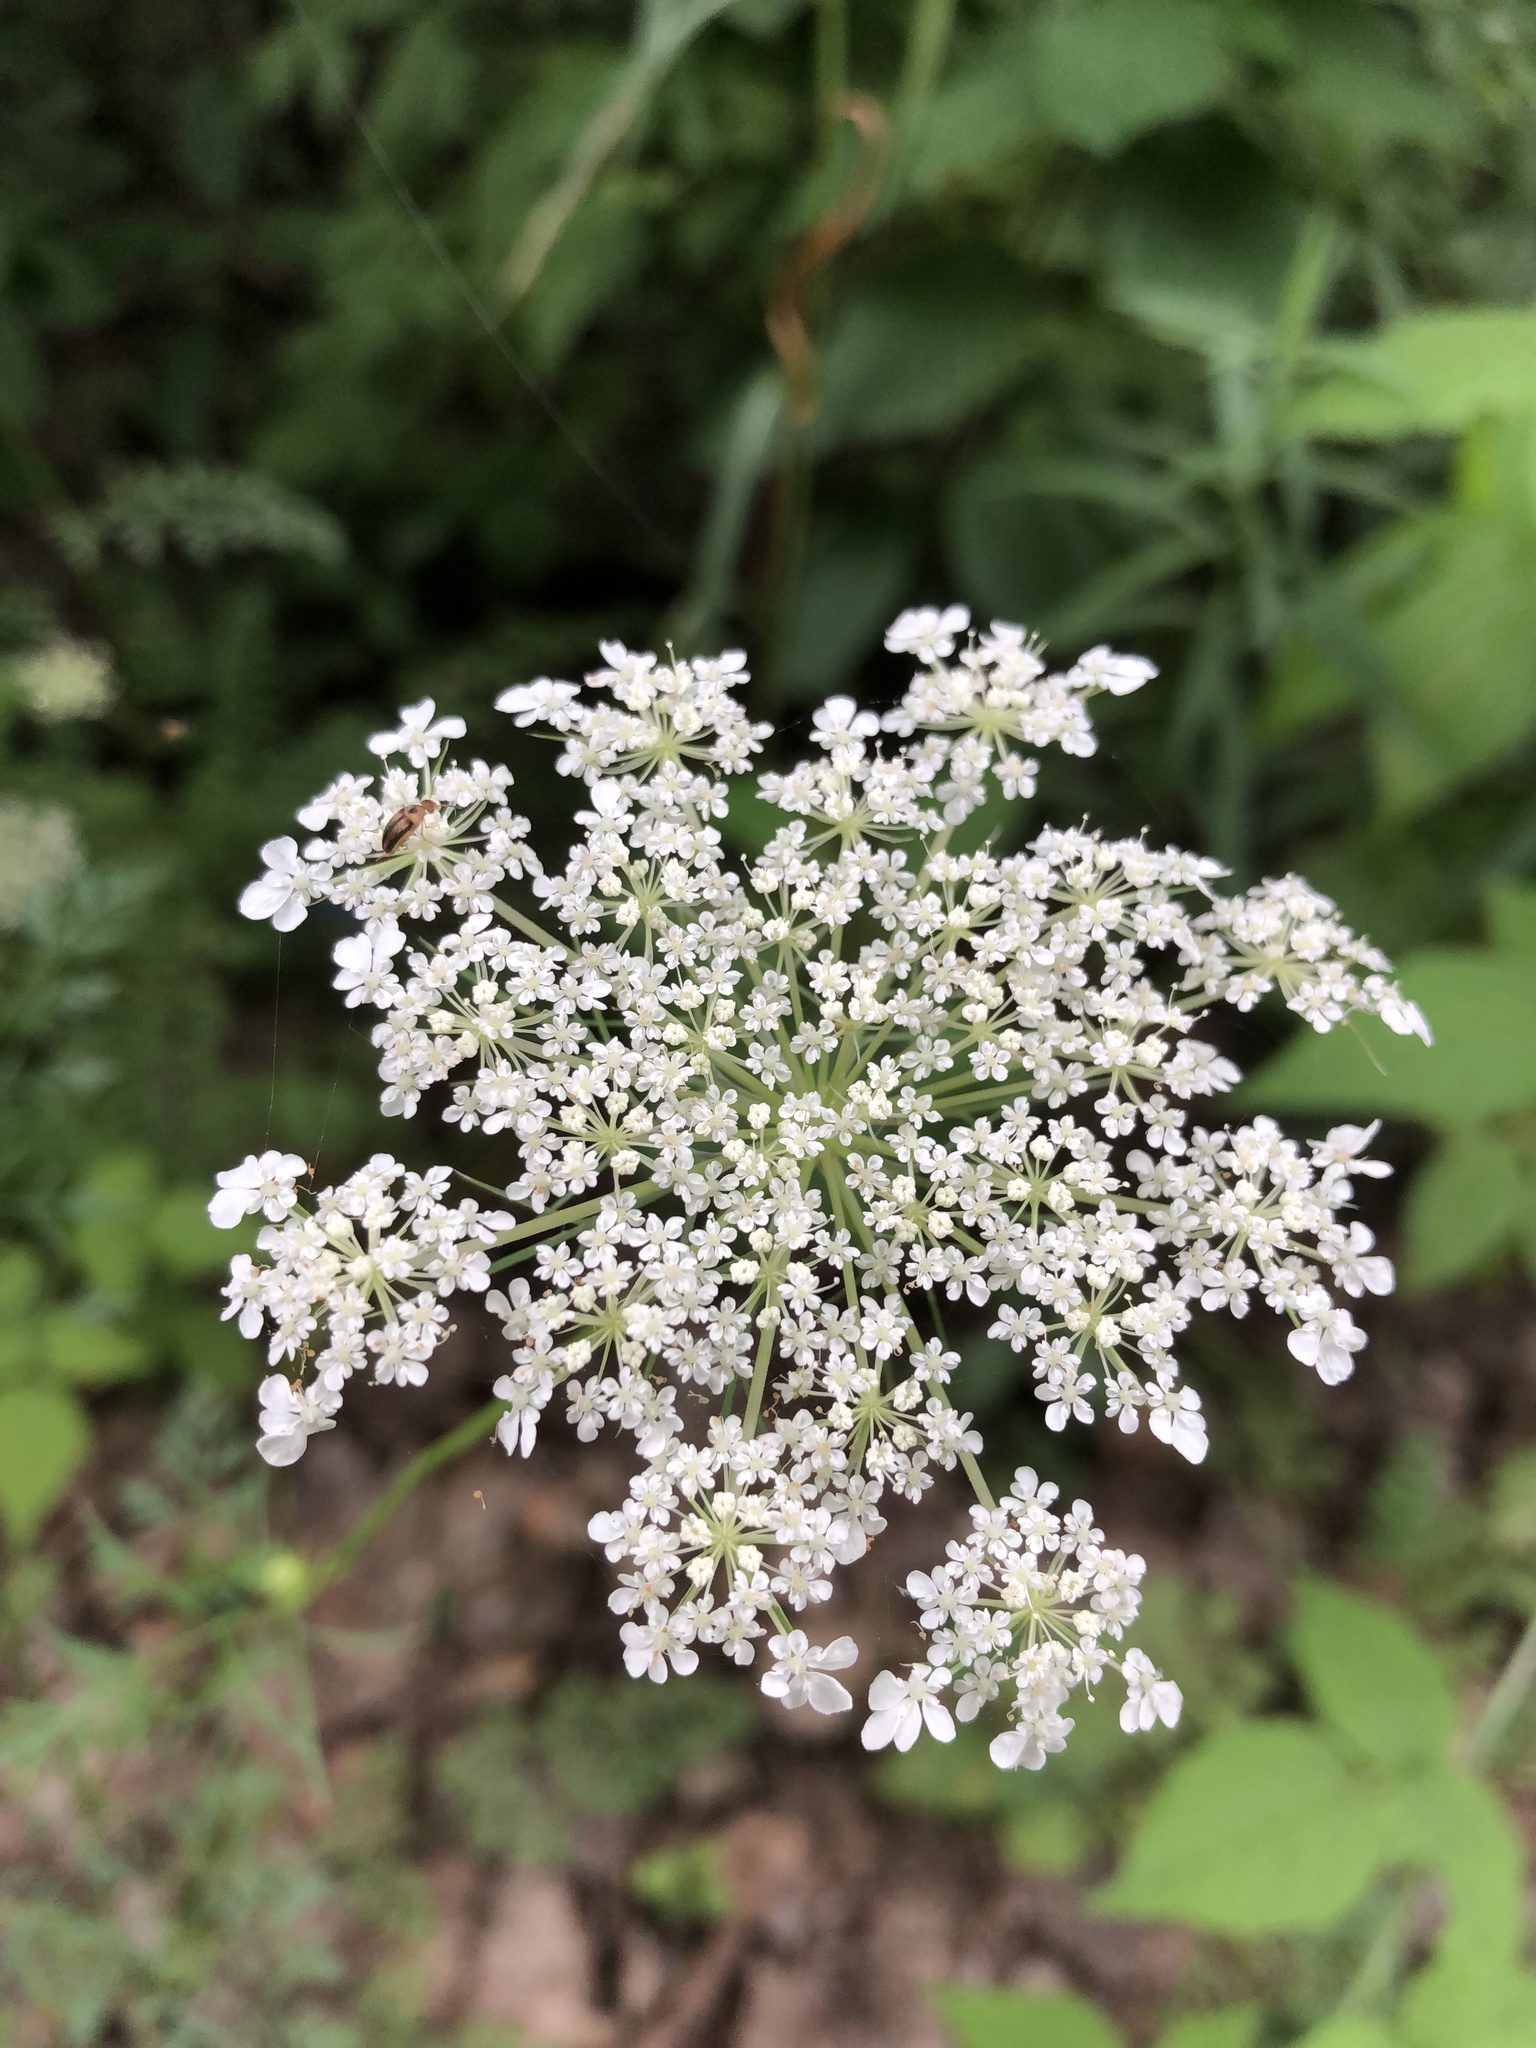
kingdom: Plantae
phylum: Tracheophyta
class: Magnoliopsida
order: Apiales
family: Apiaceae
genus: Daucus
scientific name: Daucus carota
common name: Wild carrot
